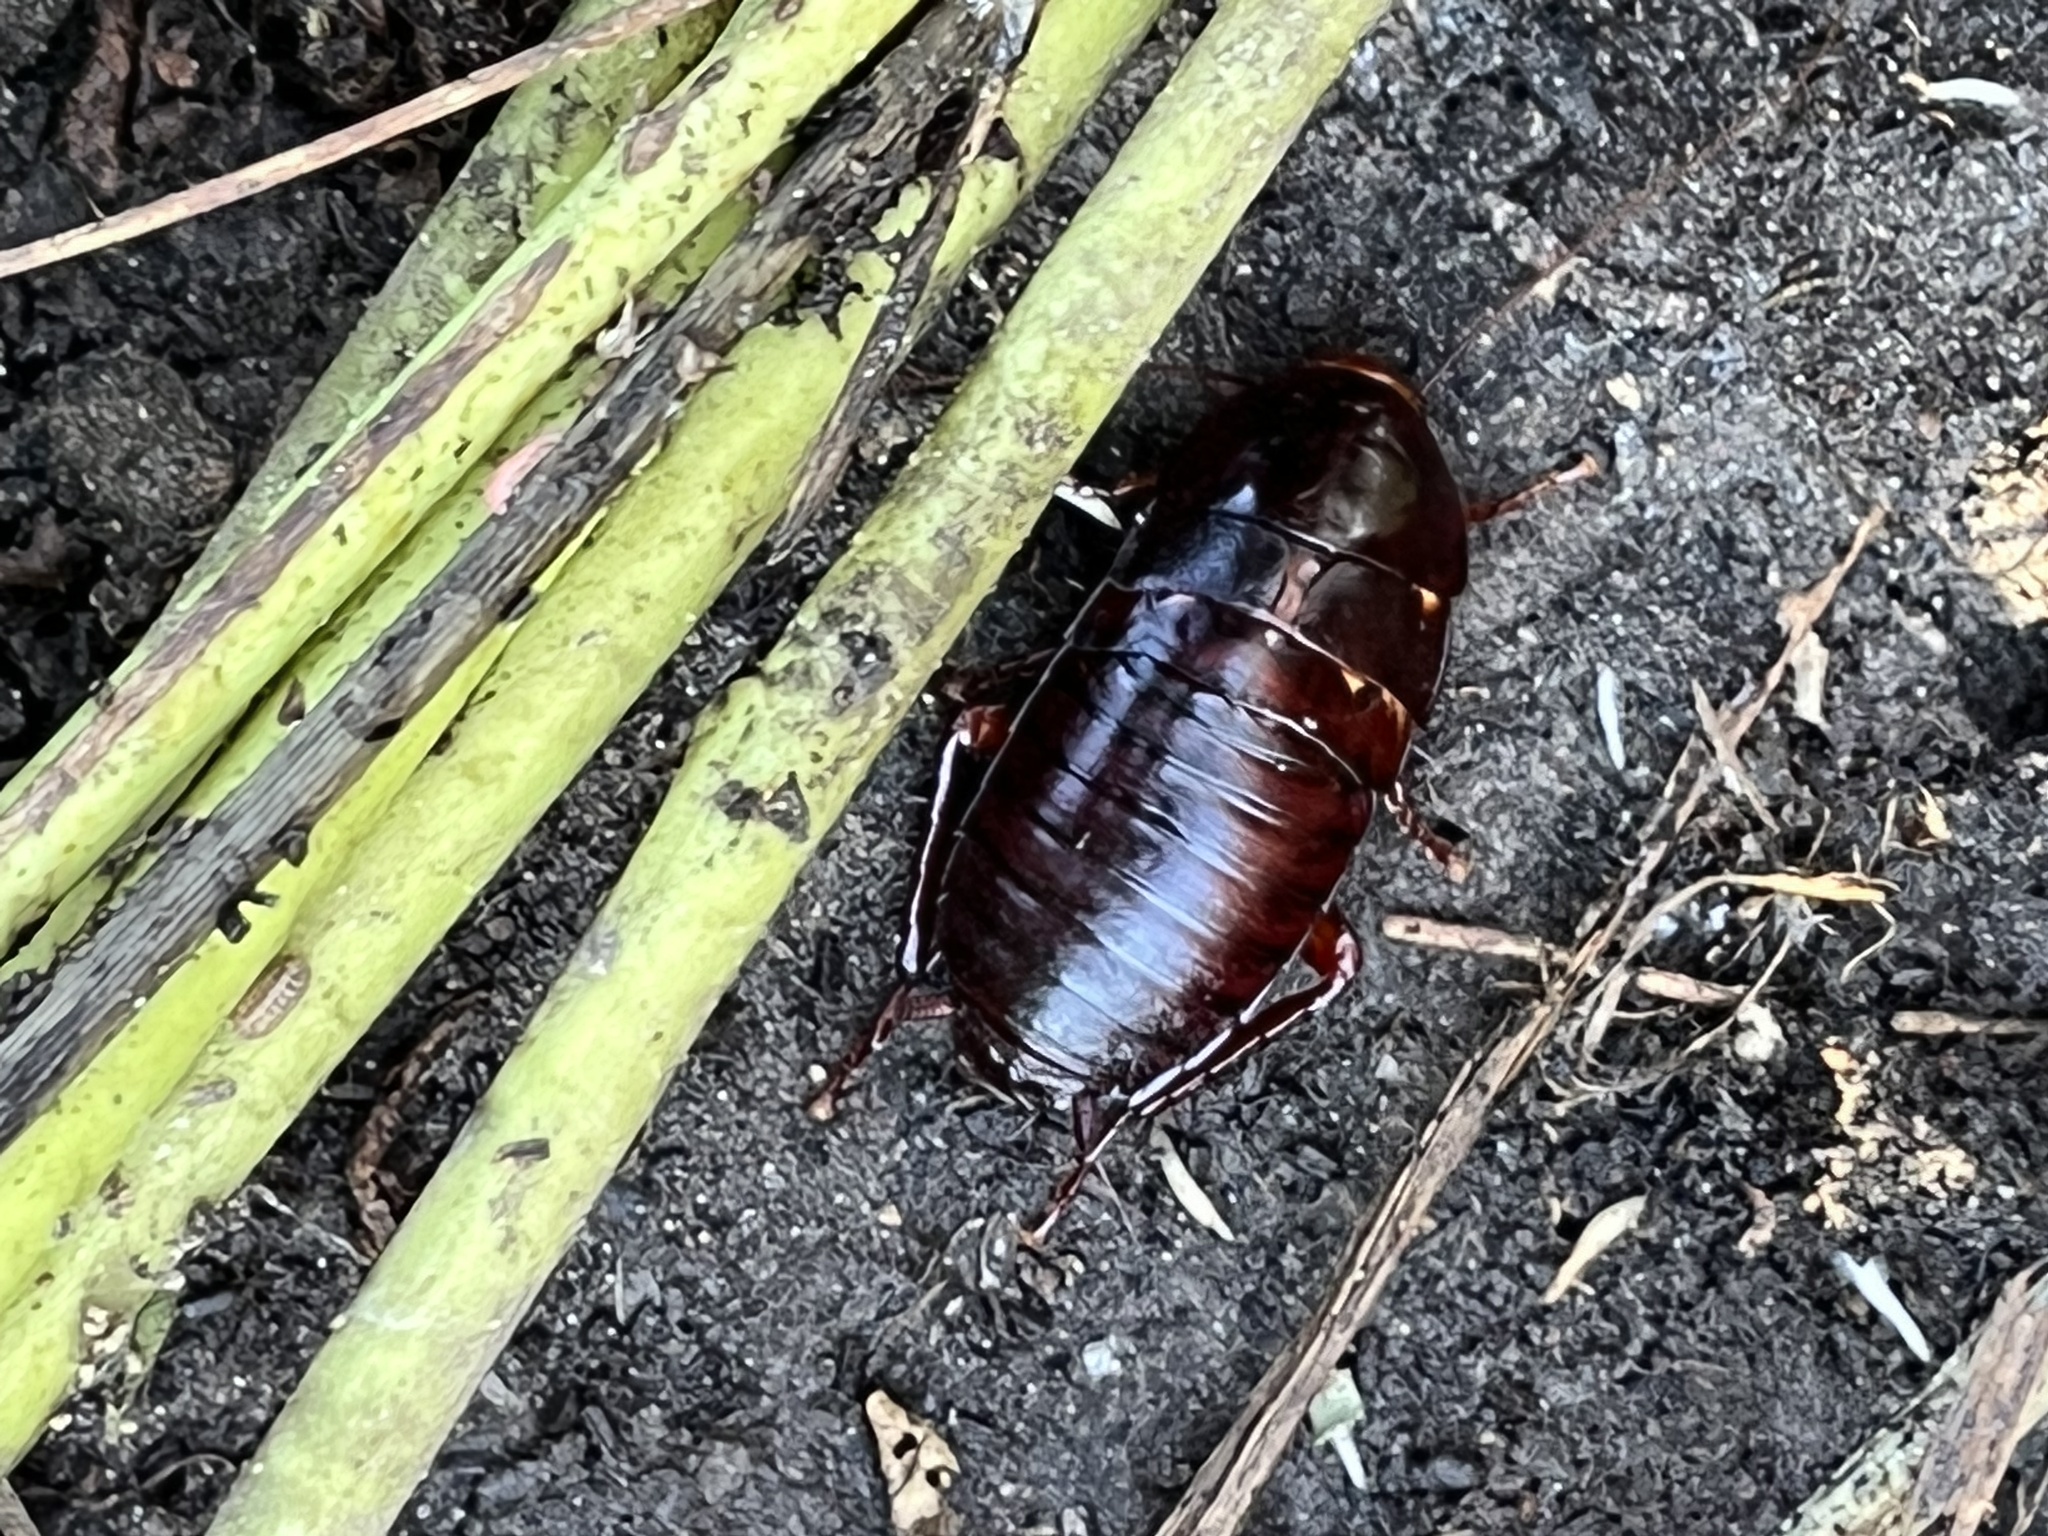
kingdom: Animalia
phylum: Arthropoda
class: Insecta
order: Blattodea
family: Blattidae
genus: Eurycotis
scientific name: Eurycotis floridana
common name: Florida cockroach
